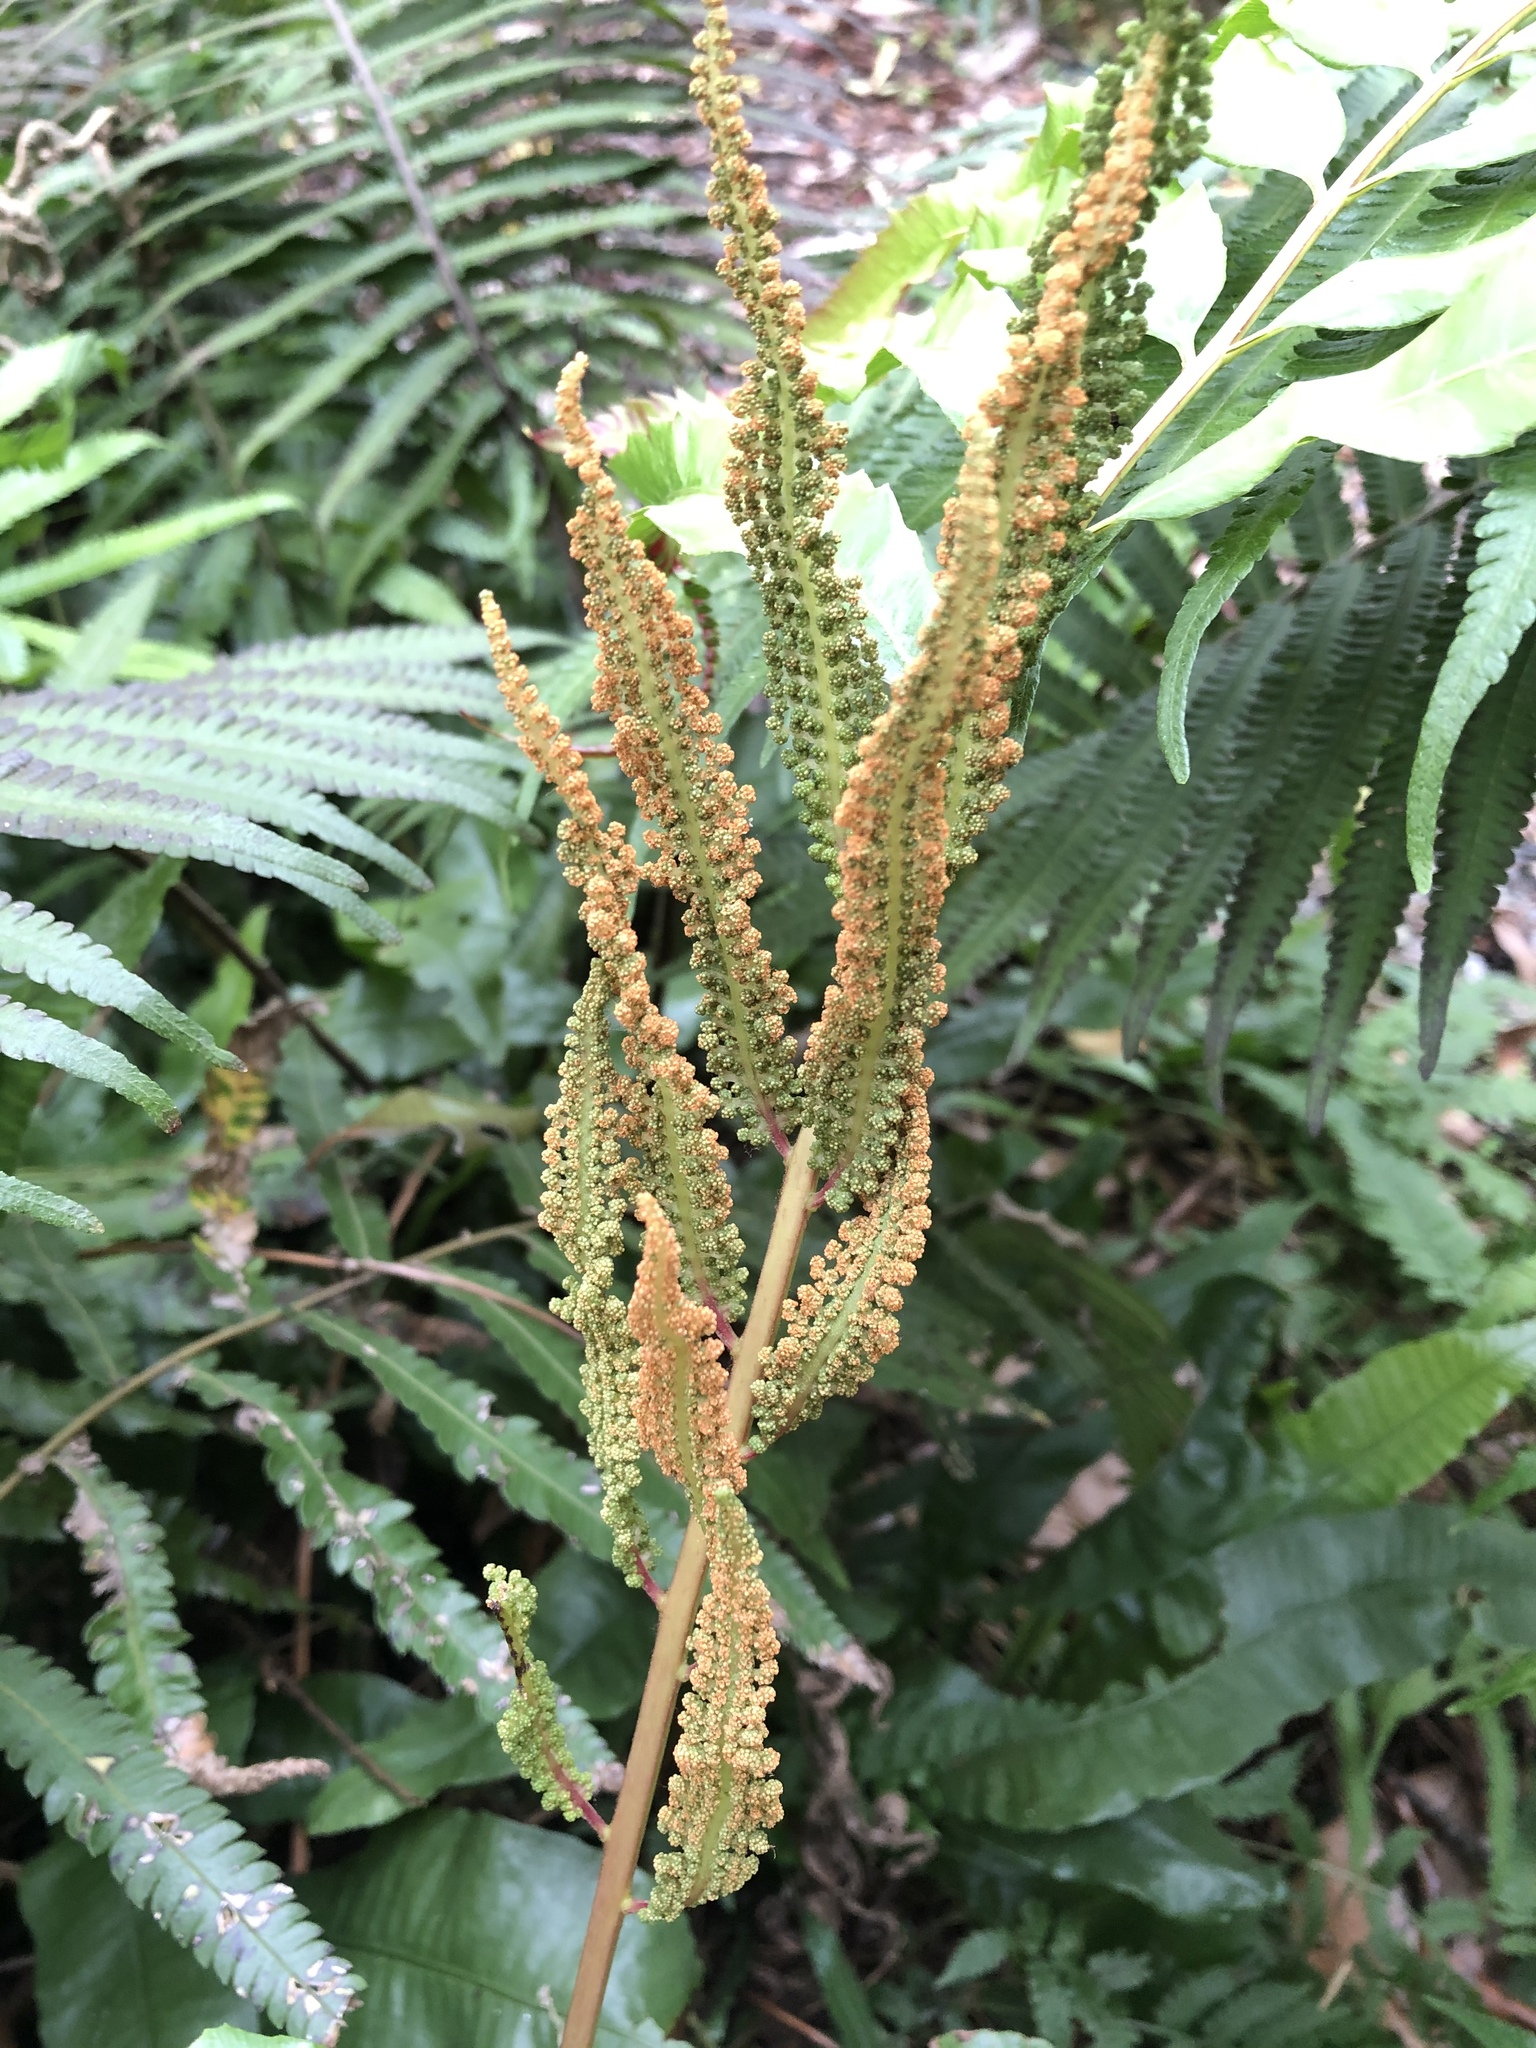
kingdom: Plantae
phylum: Tracheophyta
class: Polypodiopsida
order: Osmundales
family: Osmundaceae
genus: Plenasium
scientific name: Plenasium banksiifolium
